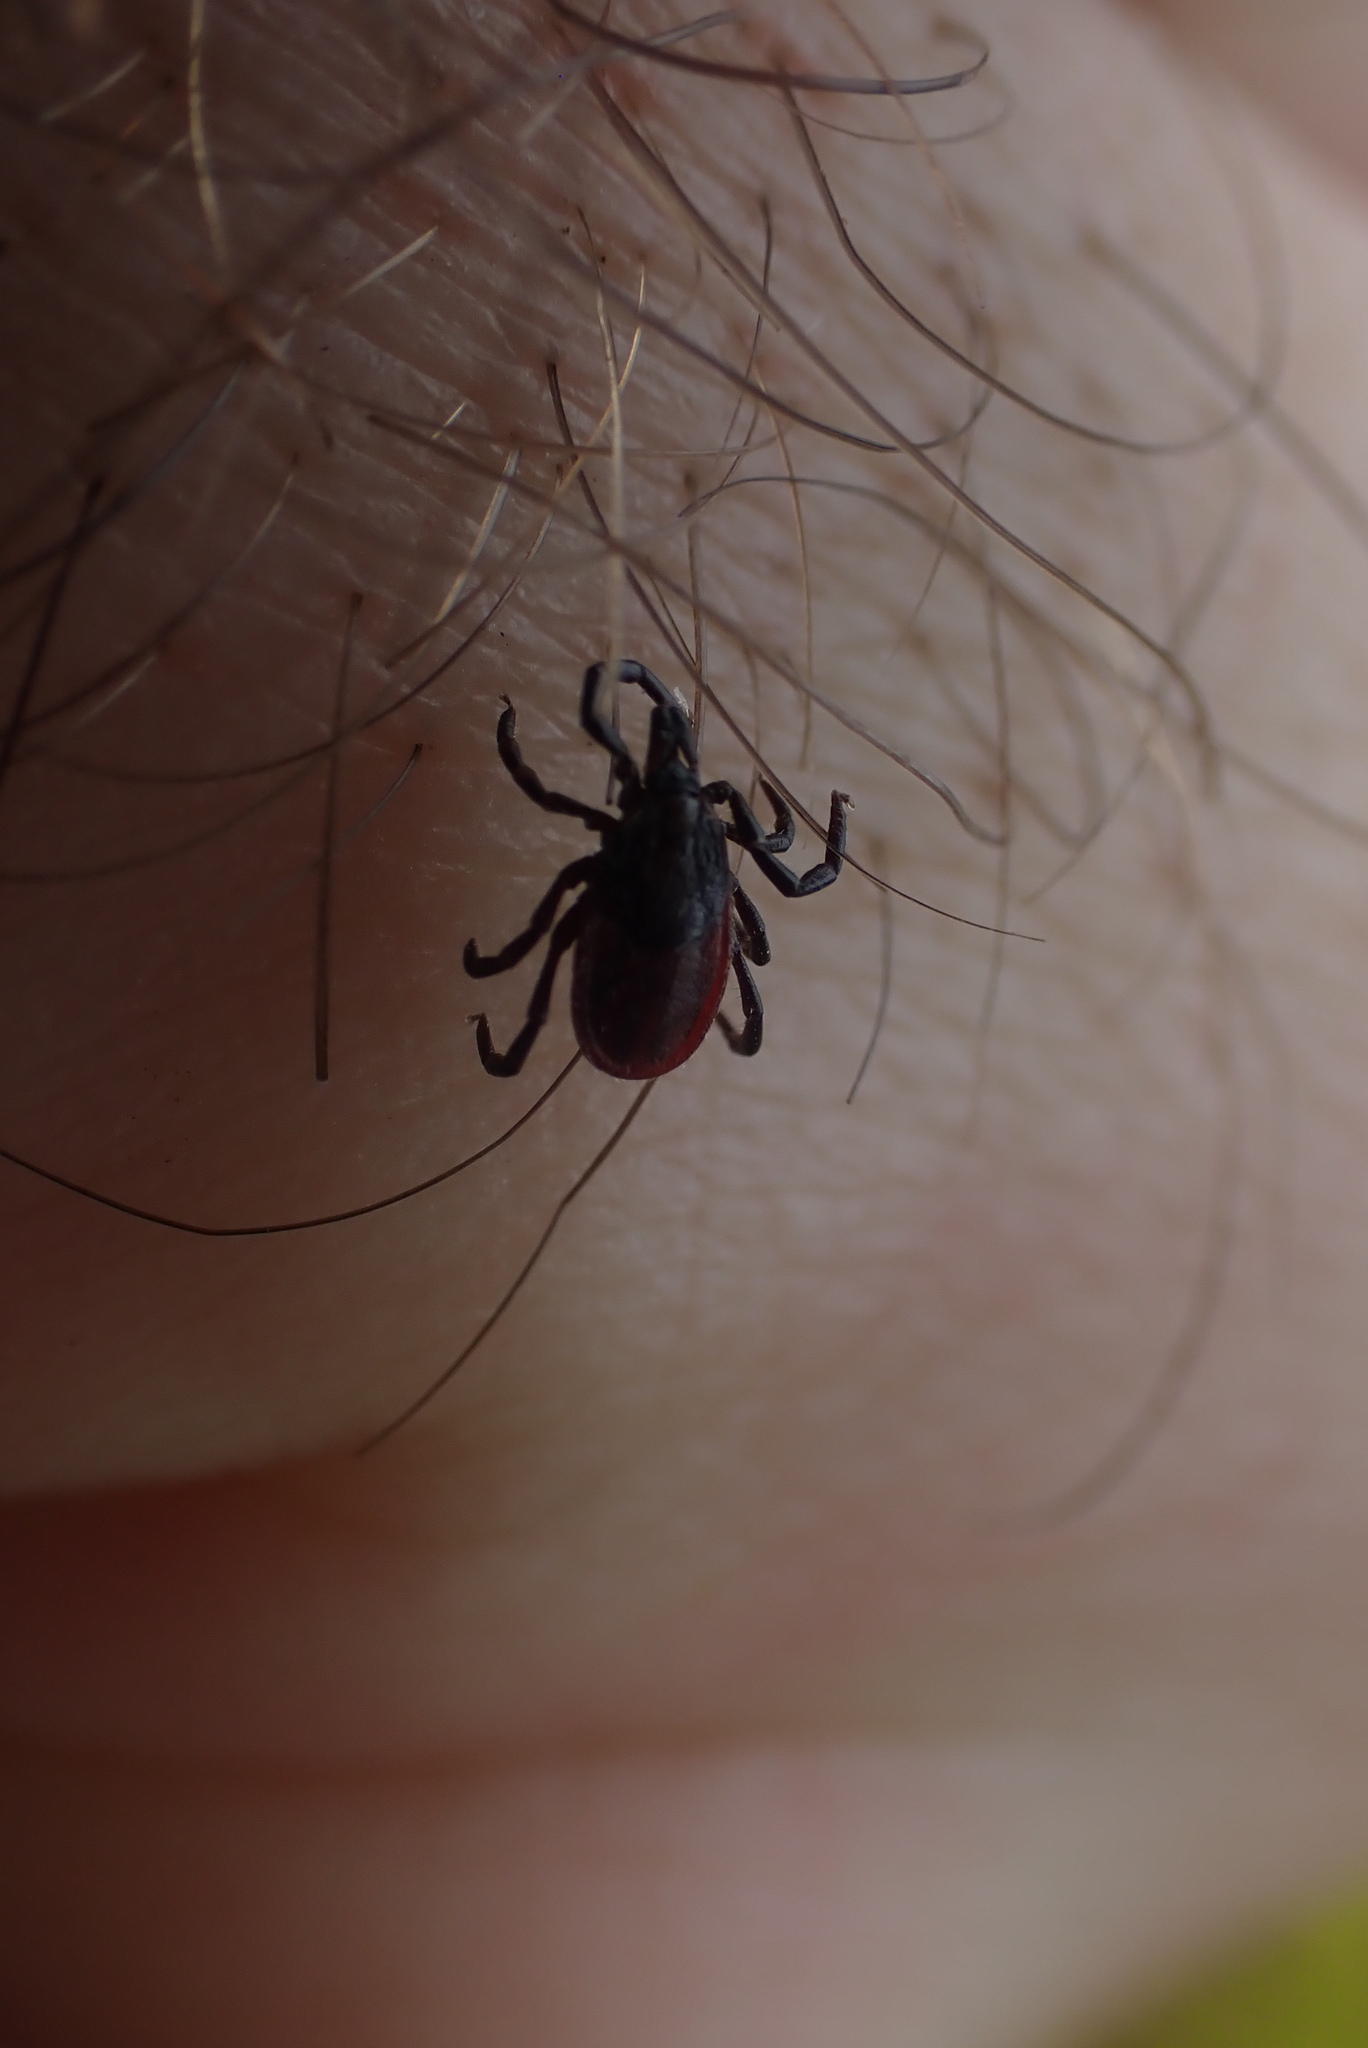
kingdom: Animalia
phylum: Arthropoda
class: Arachnida
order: Ixodida
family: Ixodidae
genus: Ixodes
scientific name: Ixodes pacificus
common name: California black-legged tick
